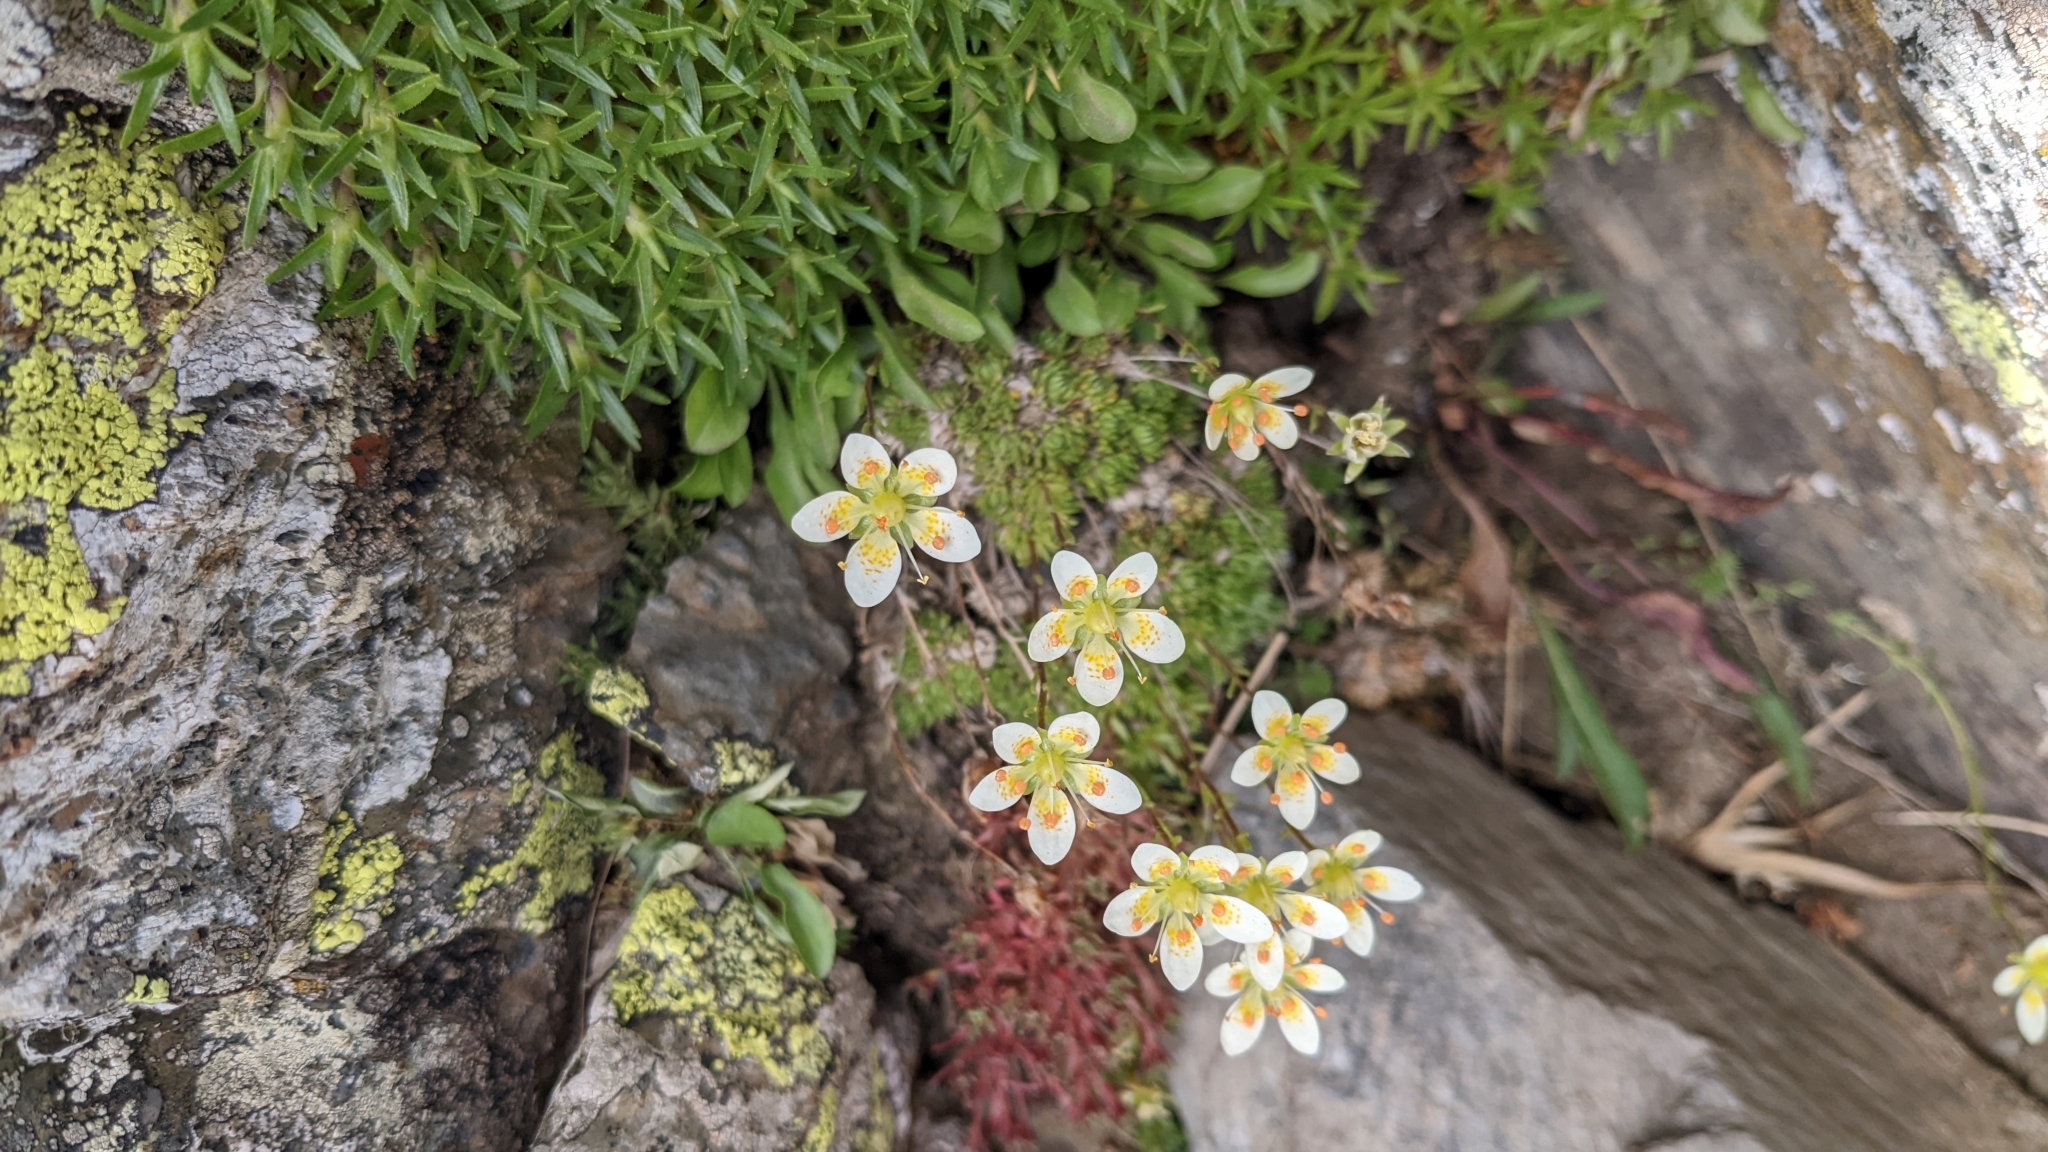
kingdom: Plantae
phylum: Tracheophyta
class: Magnoliopsida
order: Saxifragales
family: Saxifragaceae
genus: Saxifraga
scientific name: Saxifraga bryoides
